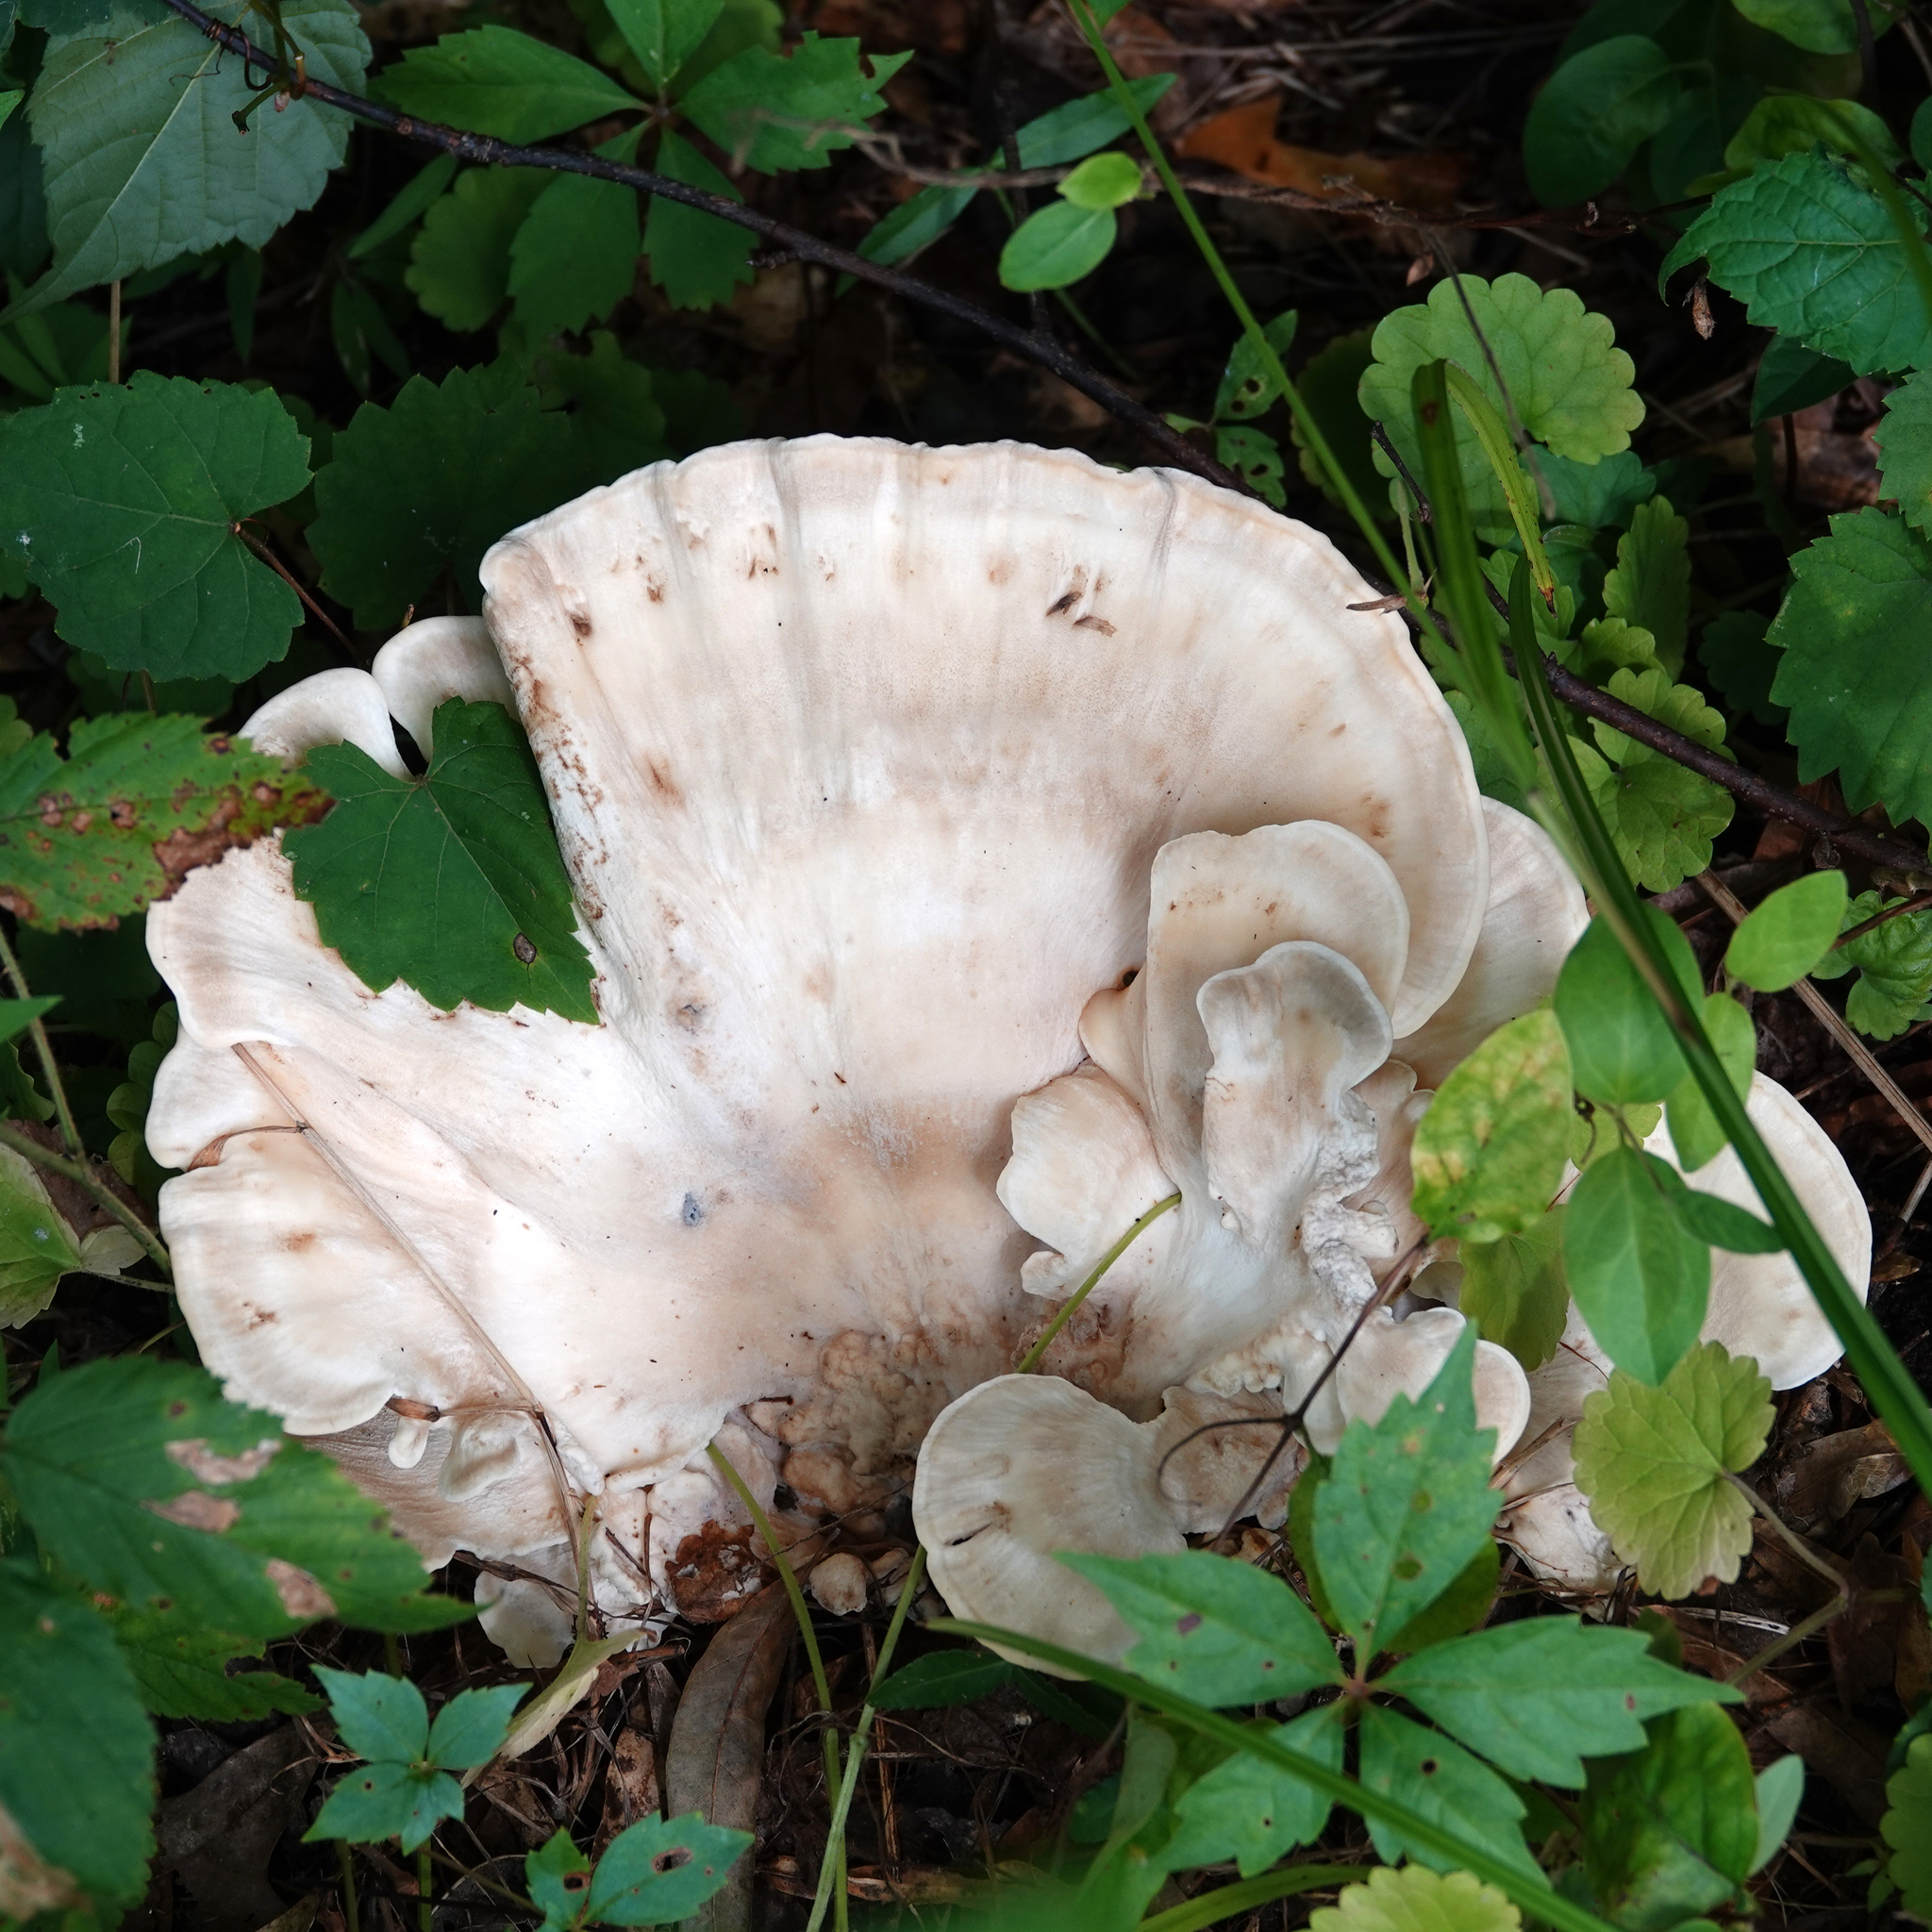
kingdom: Fungi
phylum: Basidiomycota
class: Agaricomycetes
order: Polyporales
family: Meripilaceae
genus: Meripilus
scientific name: Meripilus sumstinei
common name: Black-staining polypore
